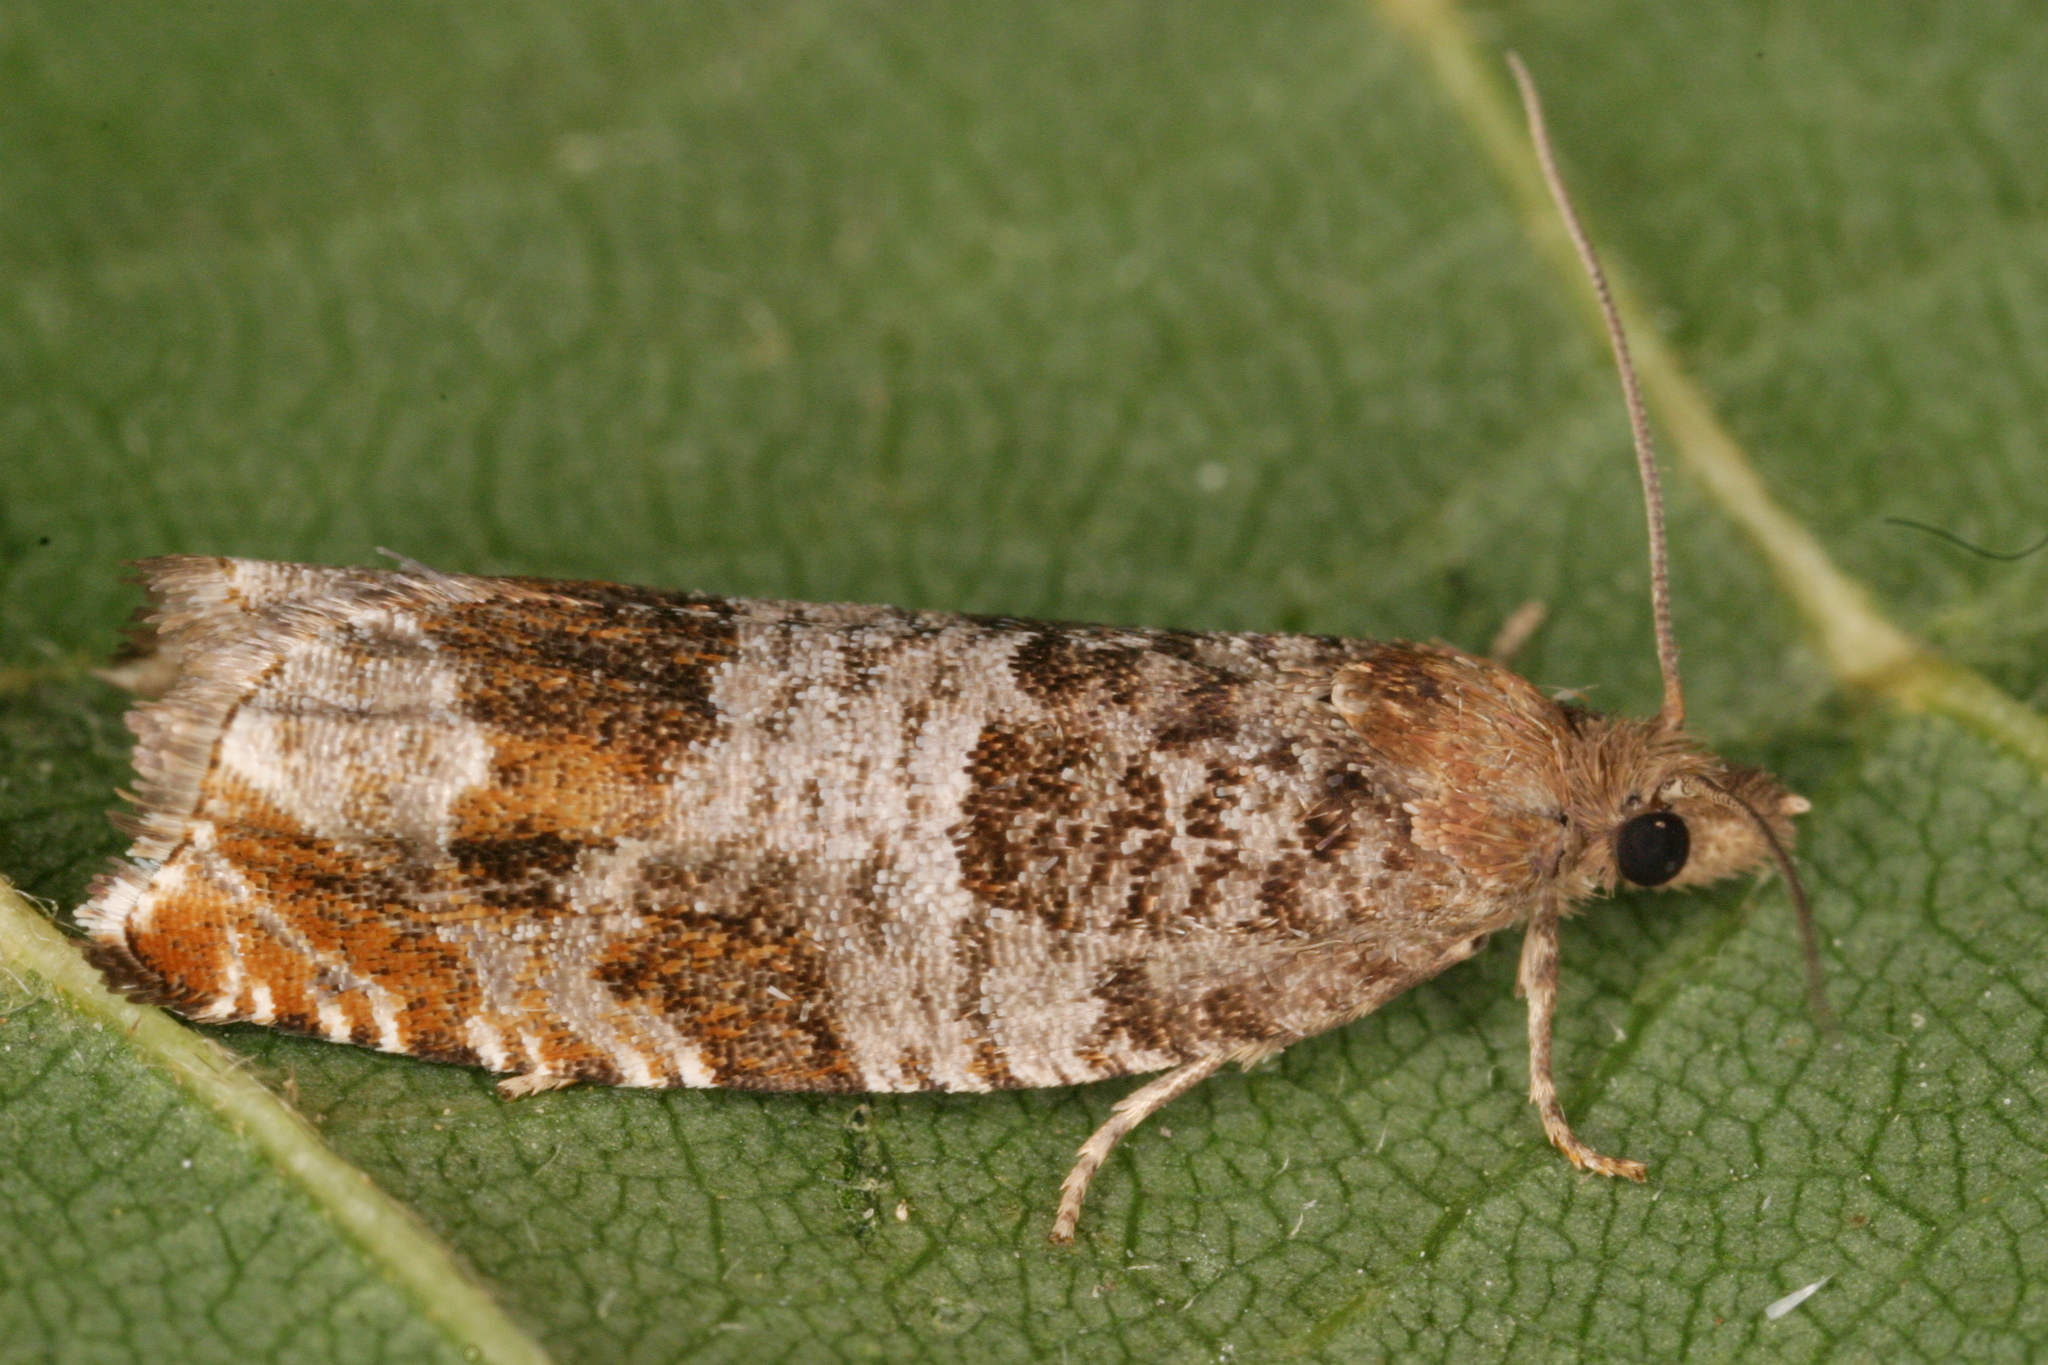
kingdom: Animalia
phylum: Arthropoda
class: Insecta
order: Lepidoptera
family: Tortricidae
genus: Ancylis
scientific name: Ancylis achatana
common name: Triangle-marked roller
